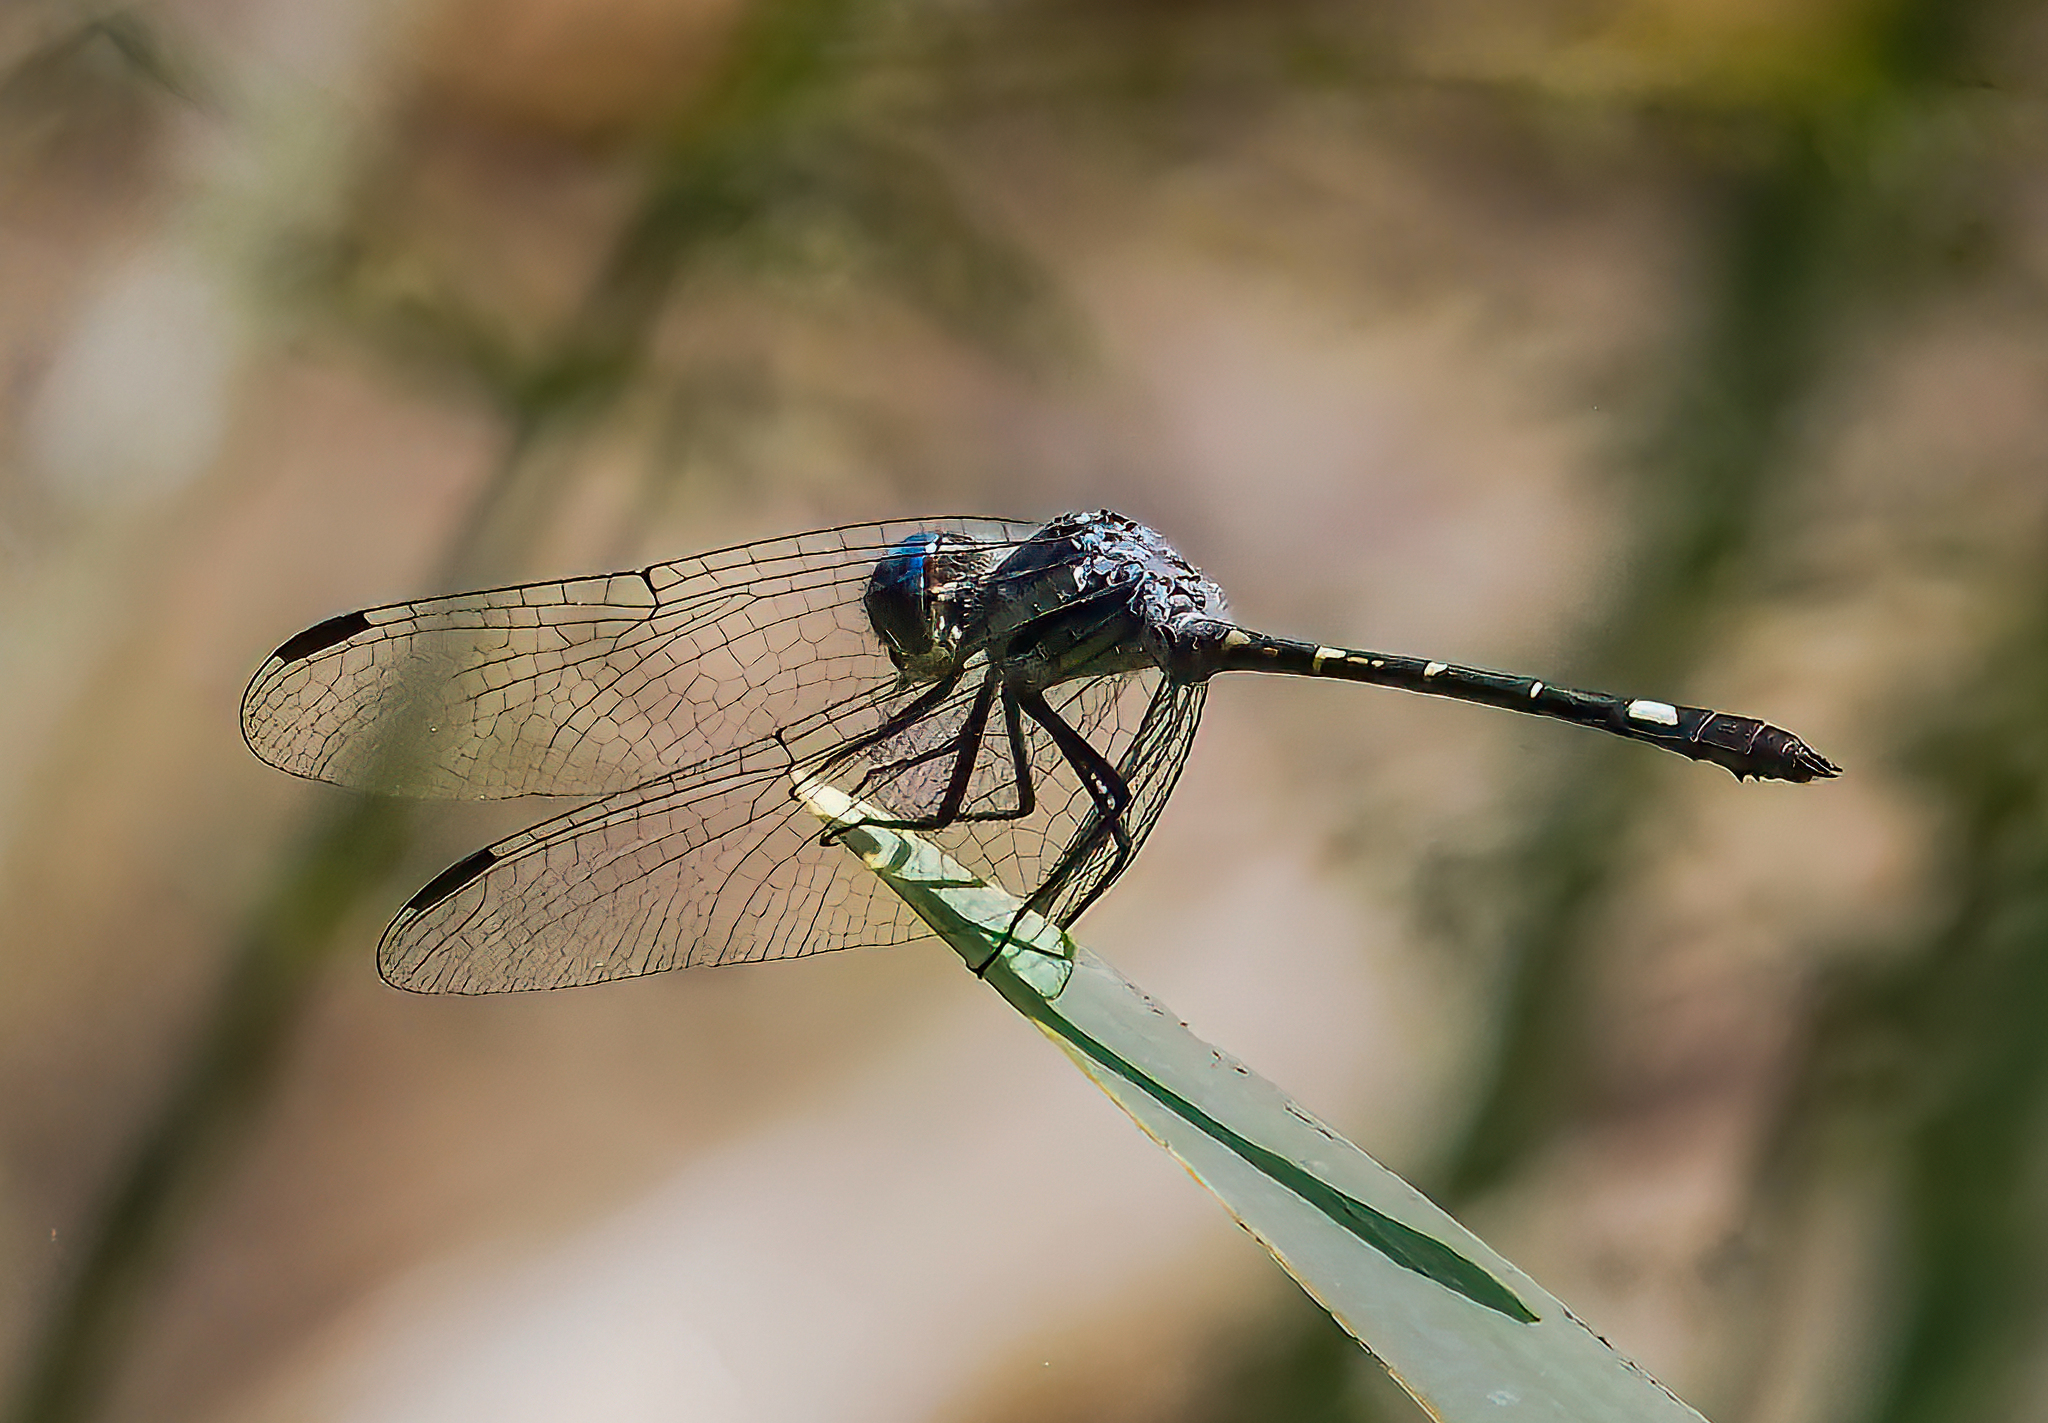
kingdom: Animalia
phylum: Arthropoda
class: Insecta
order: Odonata
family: Libellulidae
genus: Micrathyria
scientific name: Micrathyria hypodidyma
